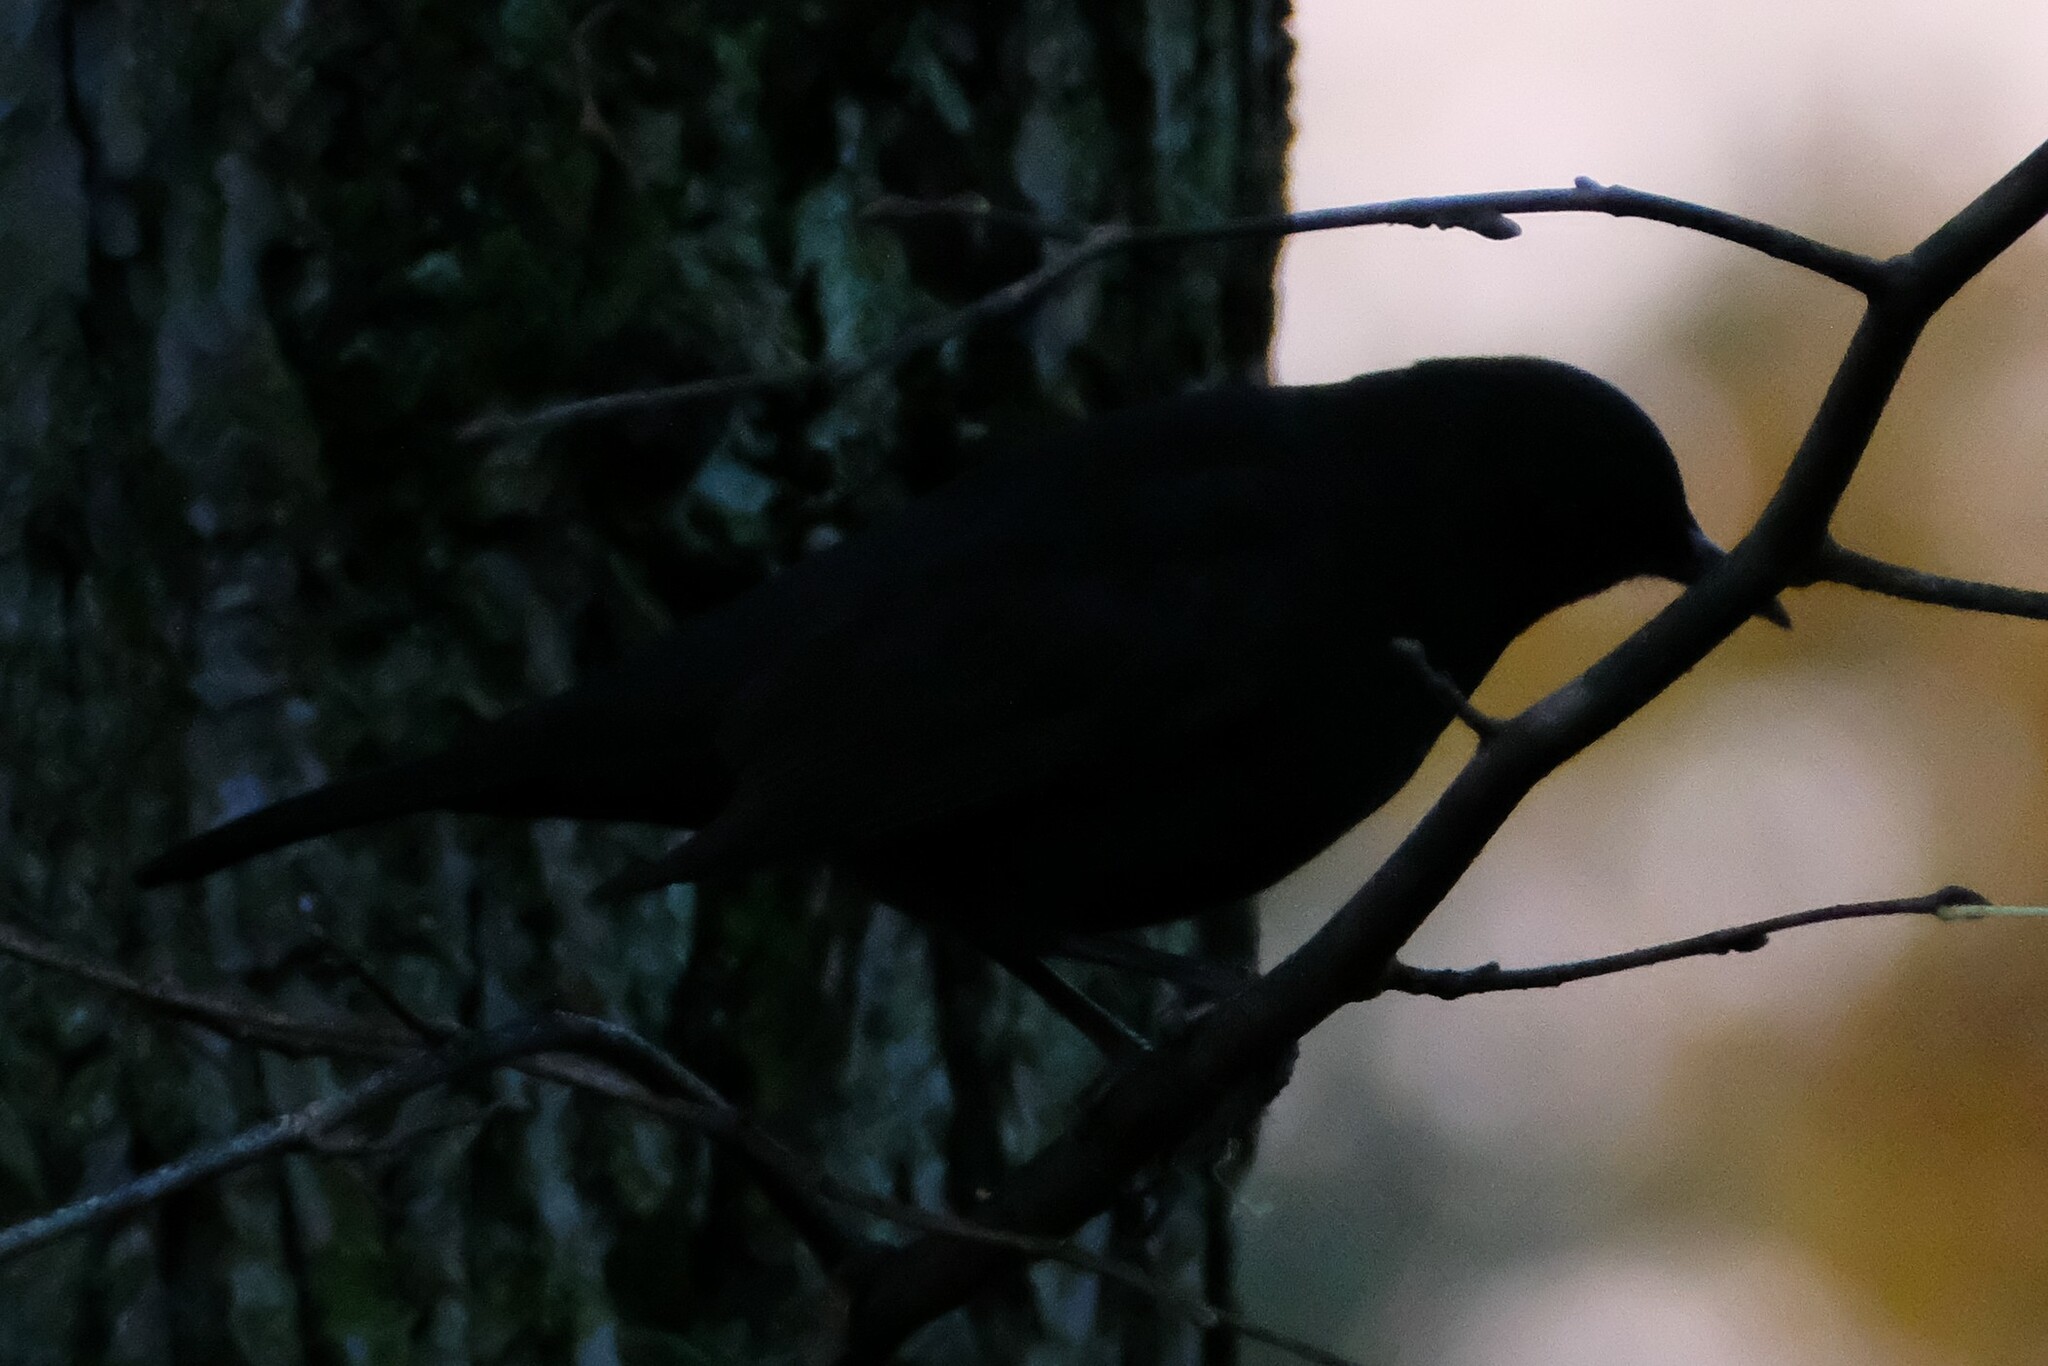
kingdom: Animalia
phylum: Chordata
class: Aves
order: Passeriformes
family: Turdidae
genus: Turdus
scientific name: Turdus merula
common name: Common blackbird
